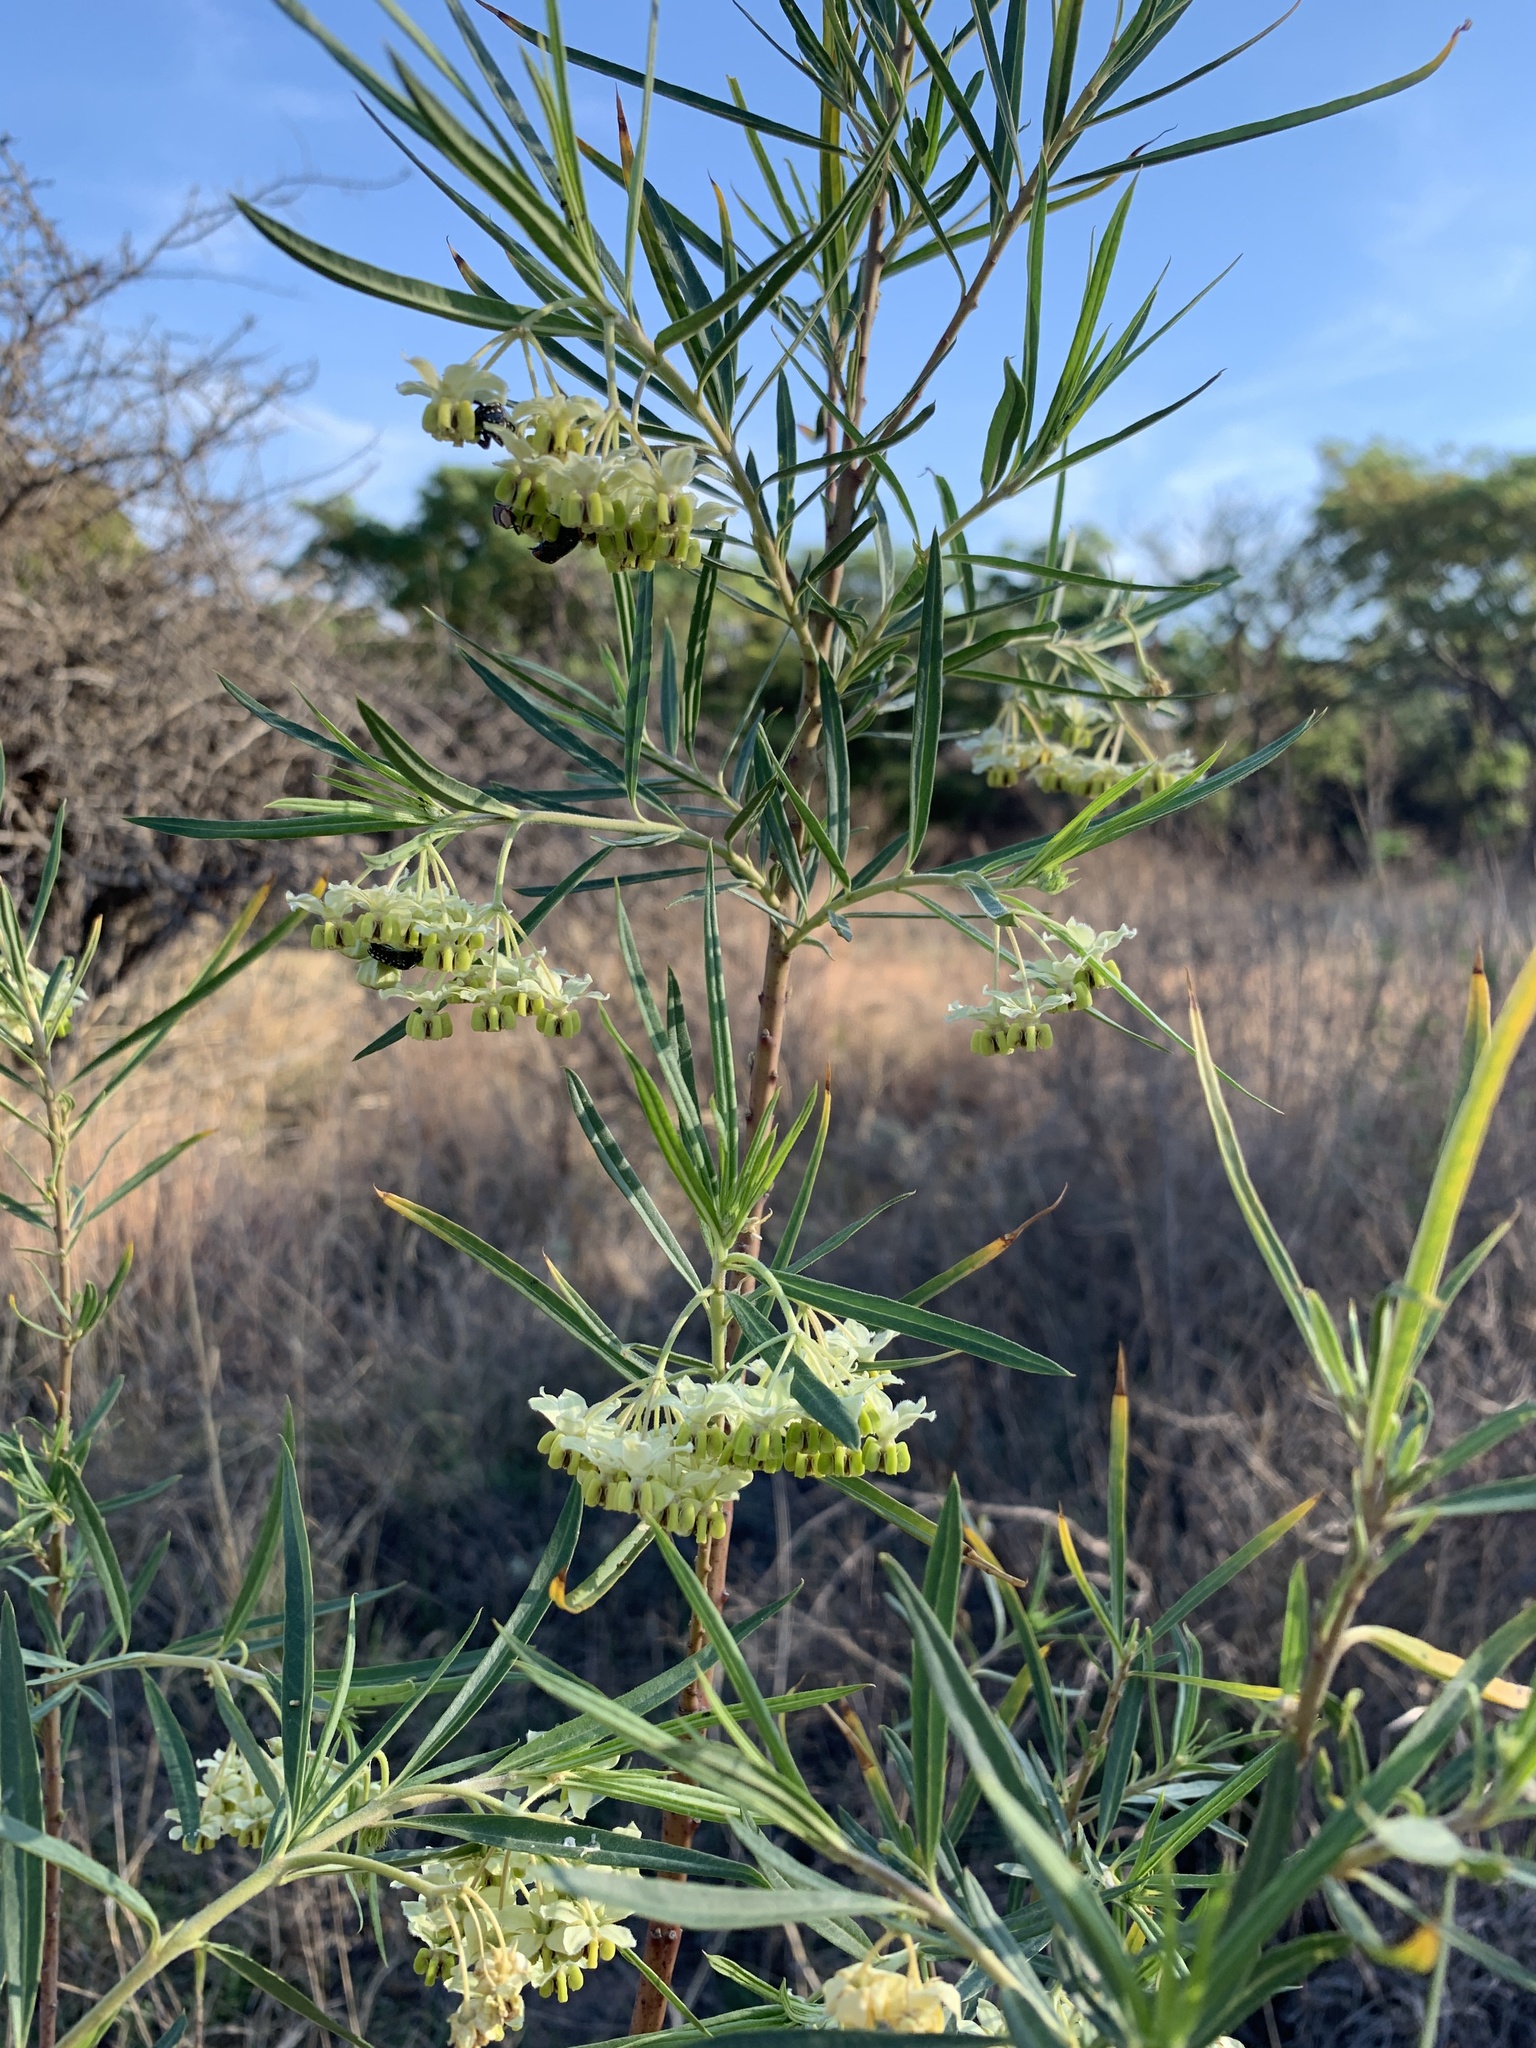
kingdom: Plantae
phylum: Tracheophyta
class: Magnoliopsida
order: Gentianales
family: Apocynaceae
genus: Gomphocarpus
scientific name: Gomphocarpus fruticosus
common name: Milkweed
